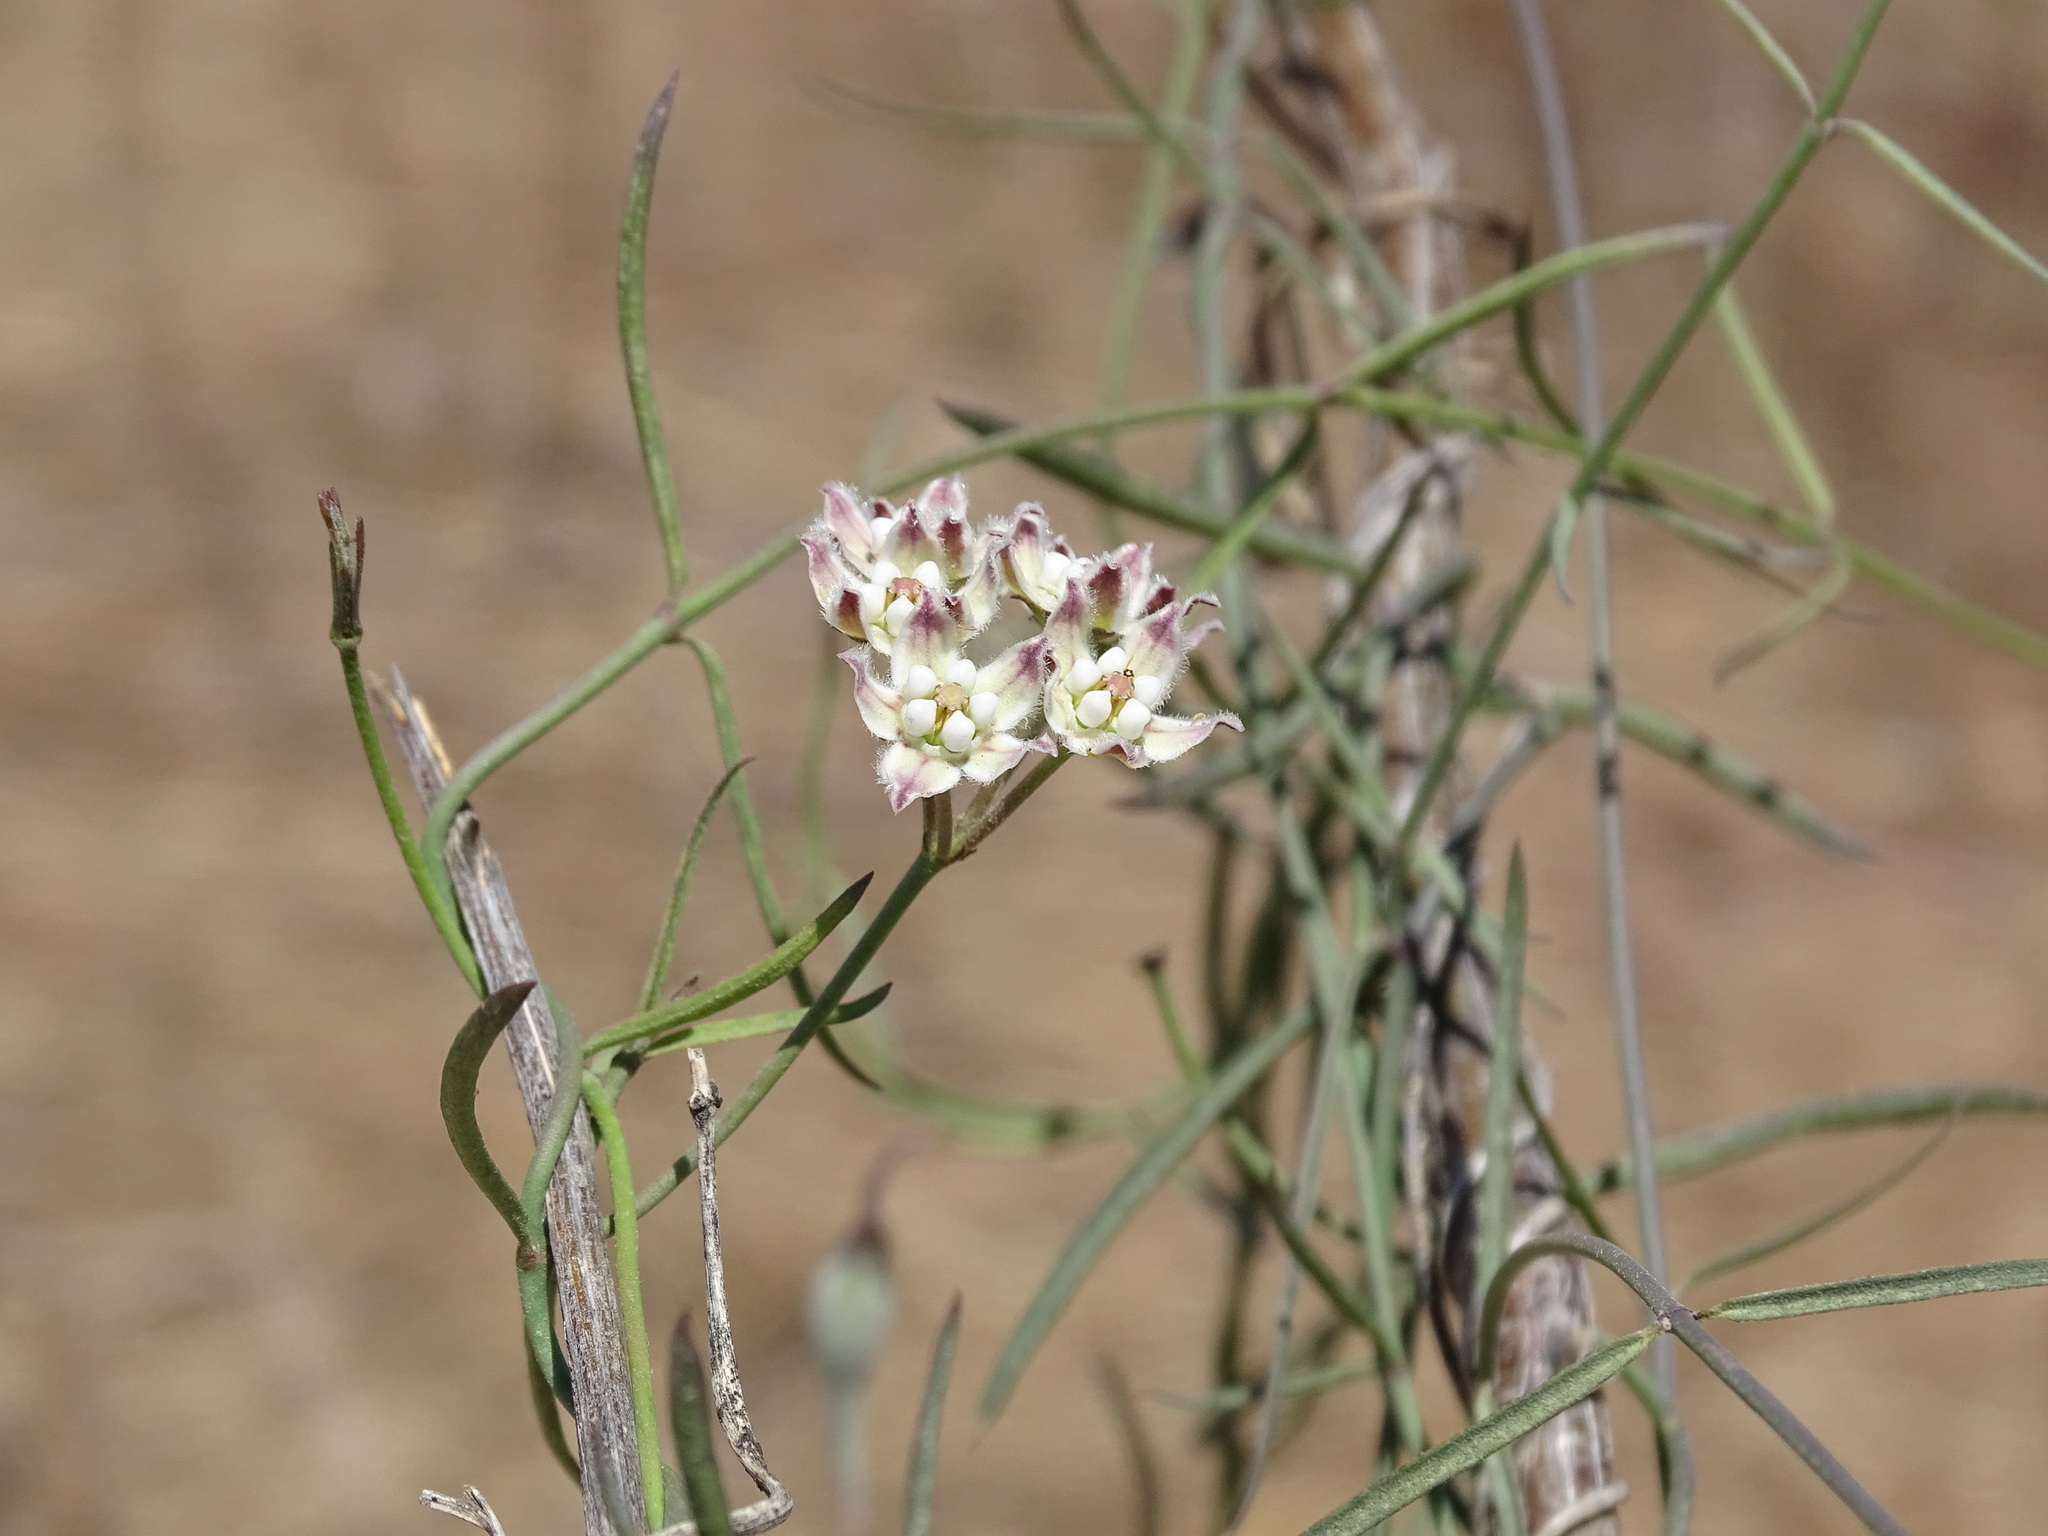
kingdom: Plantae
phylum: Tracheophyta
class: Magnoliopsida
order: Gentianales
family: Apocynaceae
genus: Funastrum
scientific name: Funastrum heterophyllum
